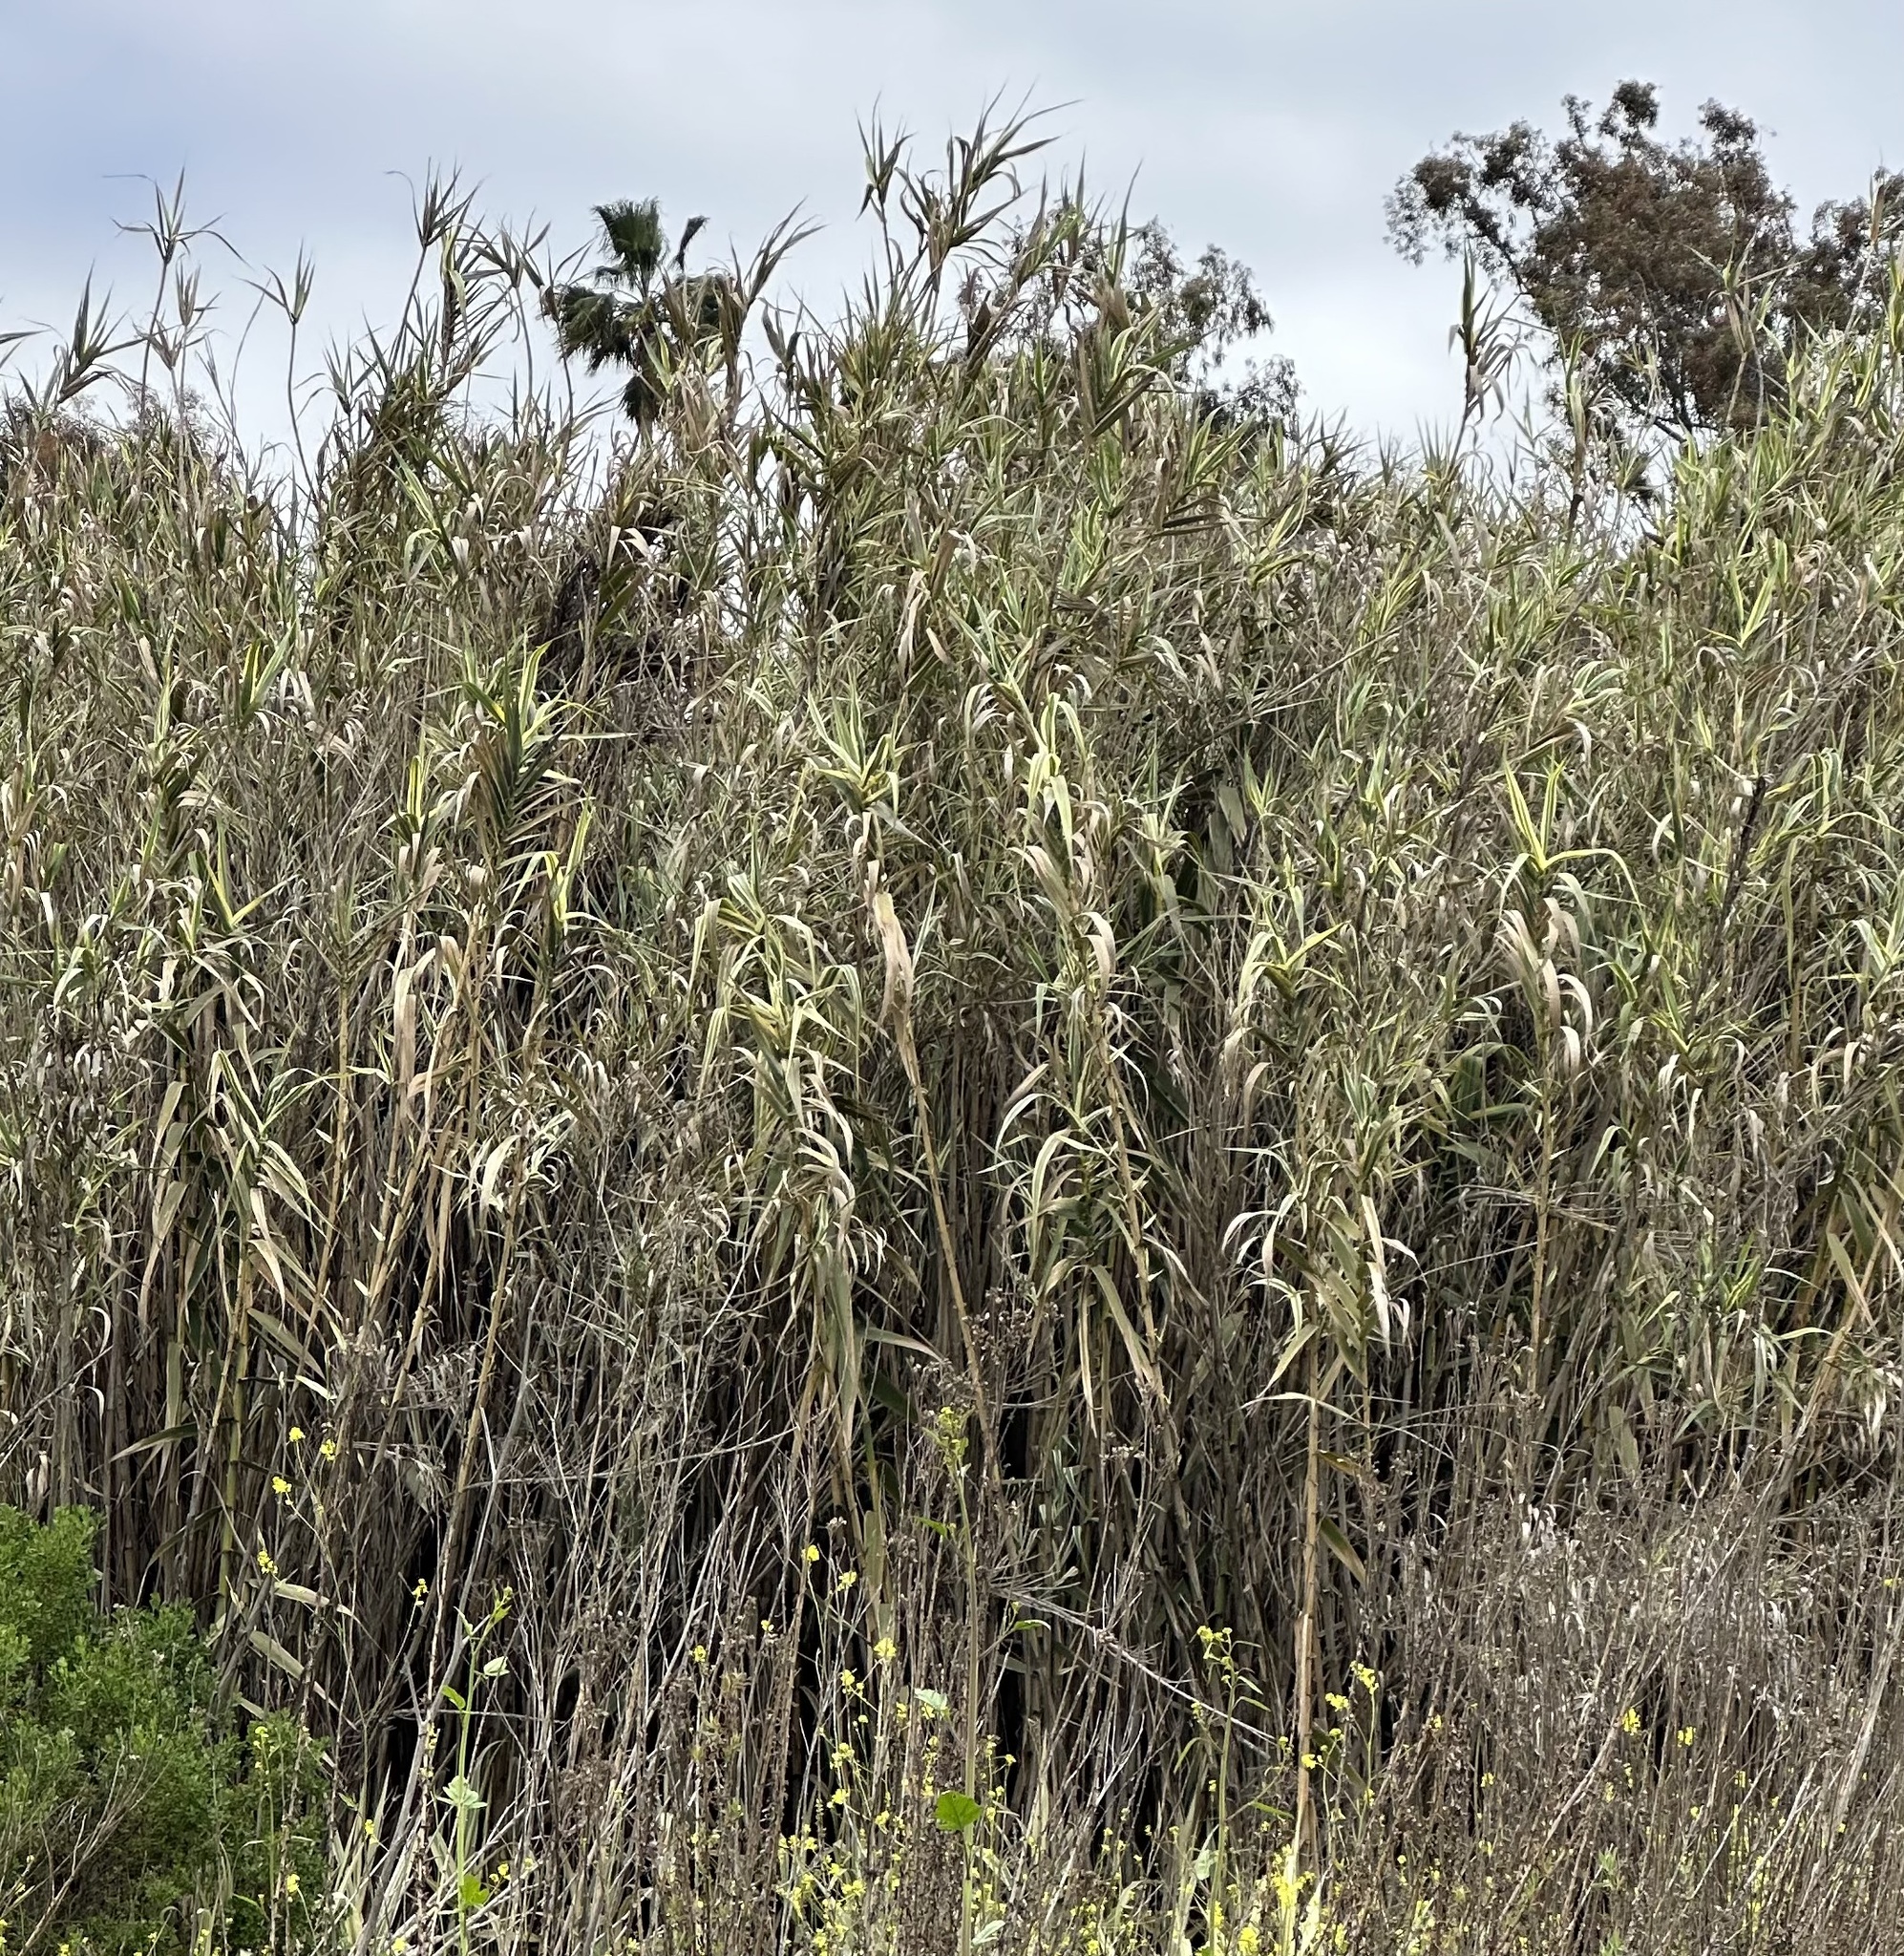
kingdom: Plantae
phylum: Tracheophyta
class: Liliopsida
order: Poales
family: Poaceae
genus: Arundo
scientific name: Arundo donax
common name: Giant reed
